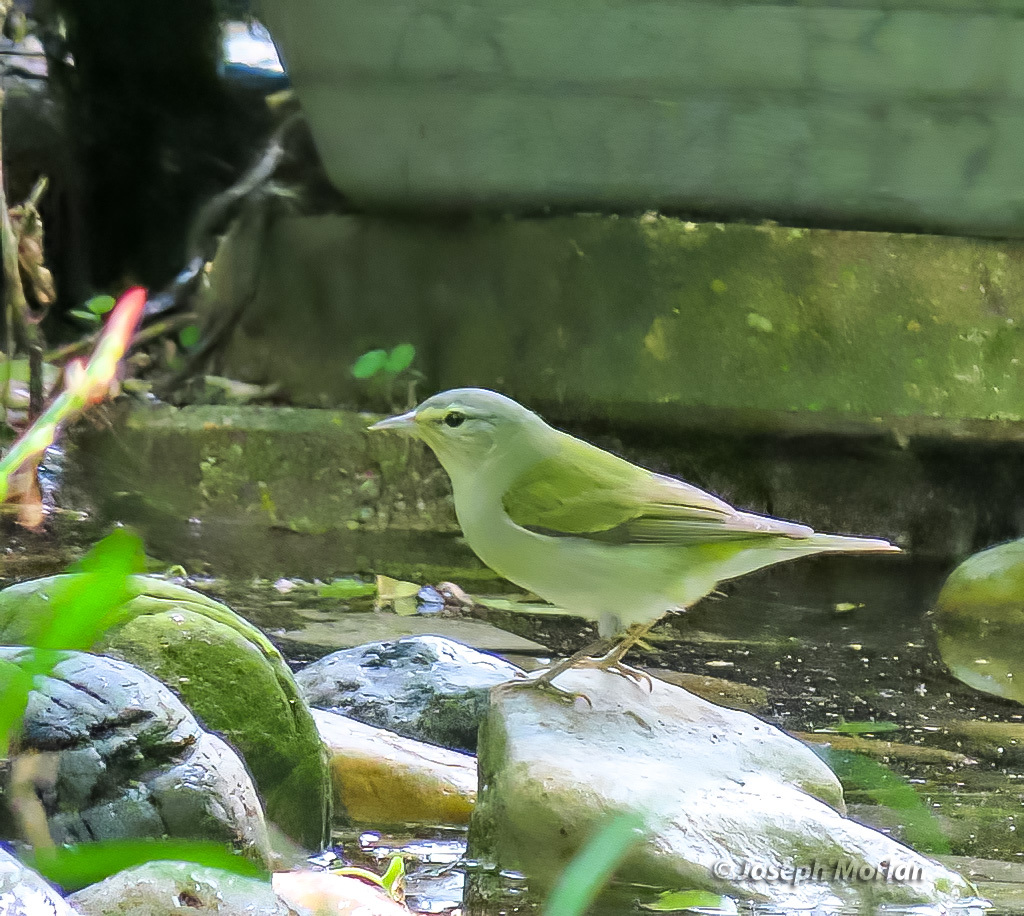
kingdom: Animalia
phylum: Chordata
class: Aves
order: Passeriformes
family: Parulidae
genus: Leiothlypis
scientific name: Leiothlypis peregrina
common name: Tennessee warbler
